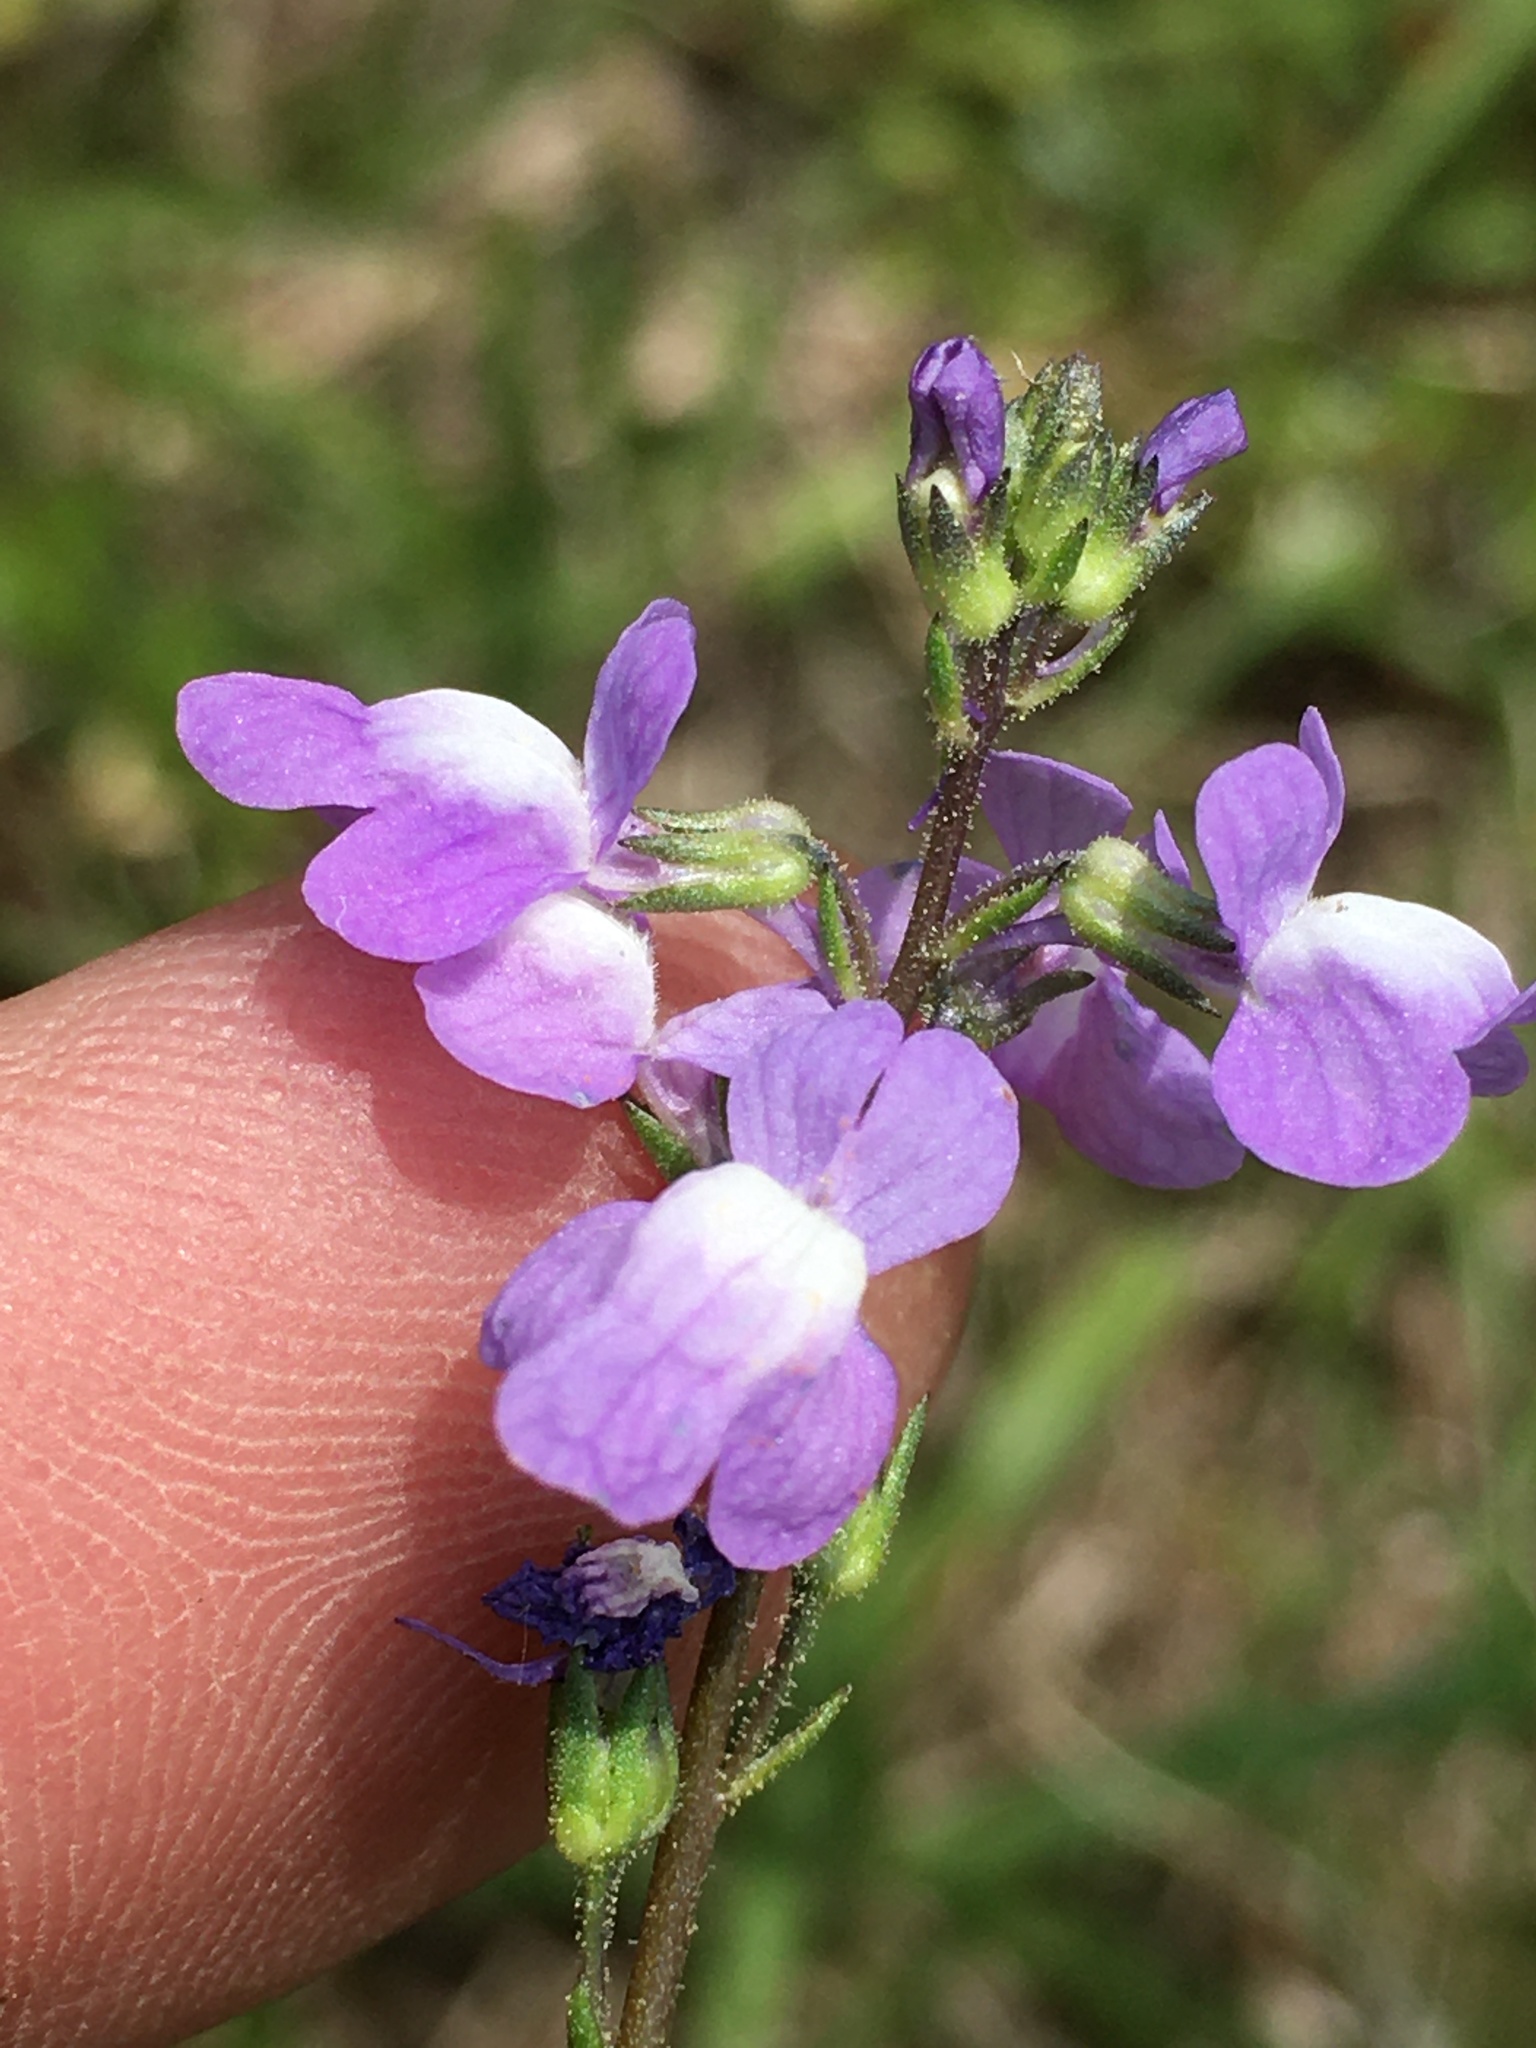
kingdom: Plantae
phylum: Tracheophyta
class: Magnoliopsida
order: Lamiales
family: Plantaginaceae
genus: Nuttallanthus
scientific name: Nuttallanthus canadensis
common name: Blue toadflax
